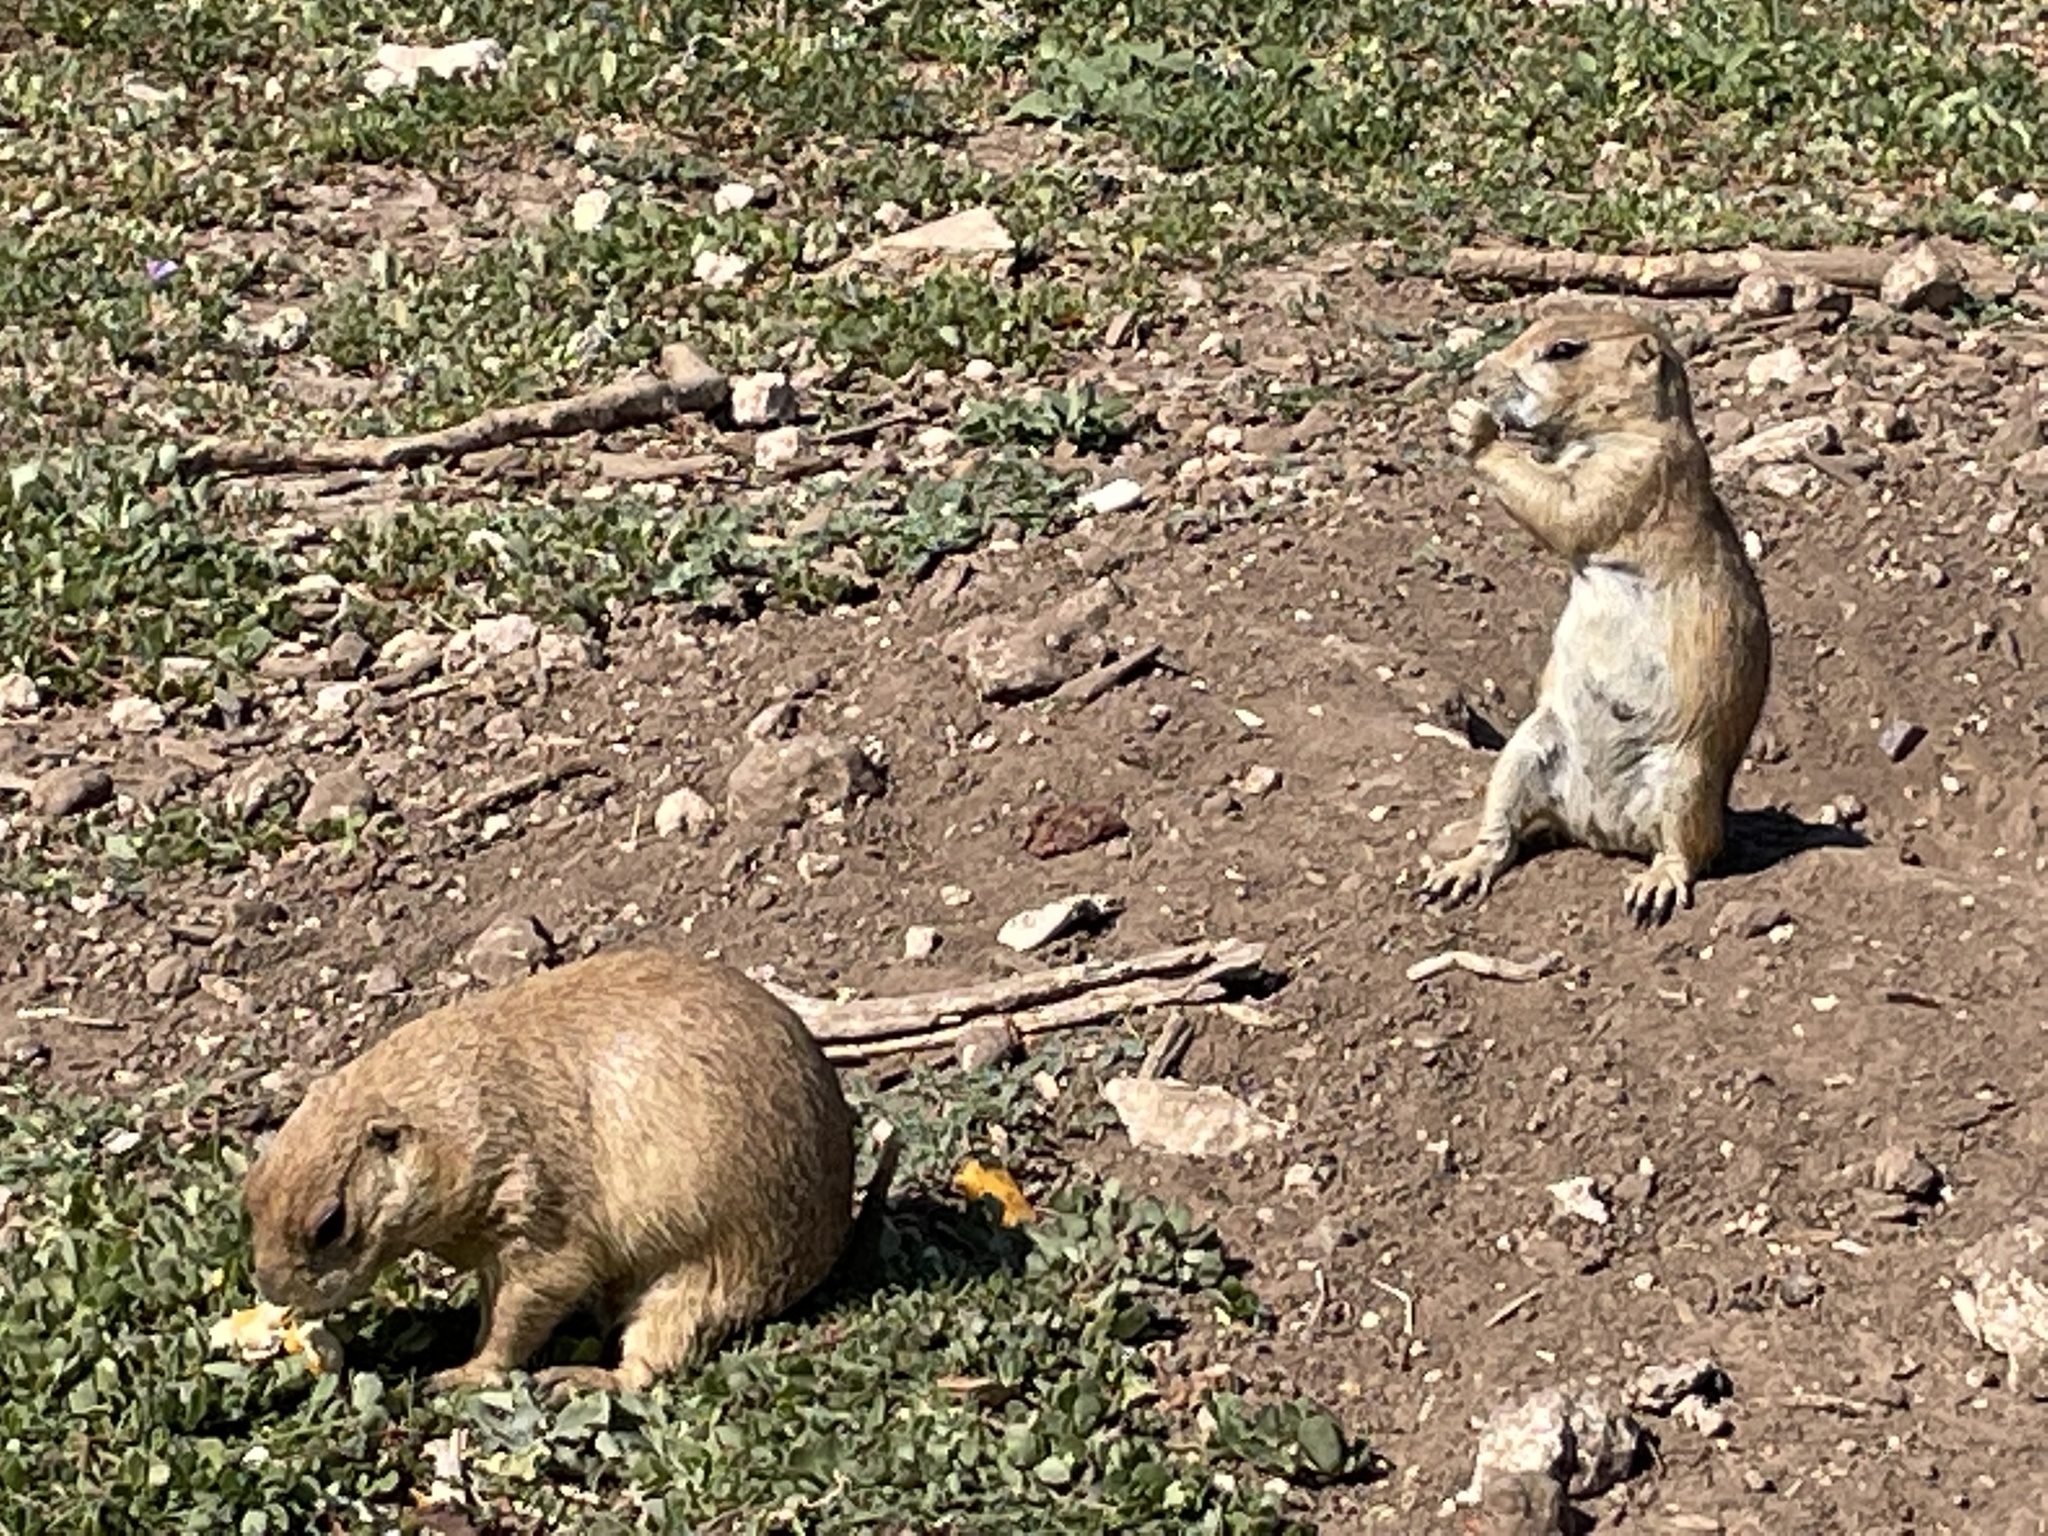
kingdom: Animalia
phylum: Chordata
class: Mammalia
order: Rodentia
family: Sciuridae
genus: Cynomys
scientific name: Cynomys ludovicianus
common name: Black-tailed prairie dog
